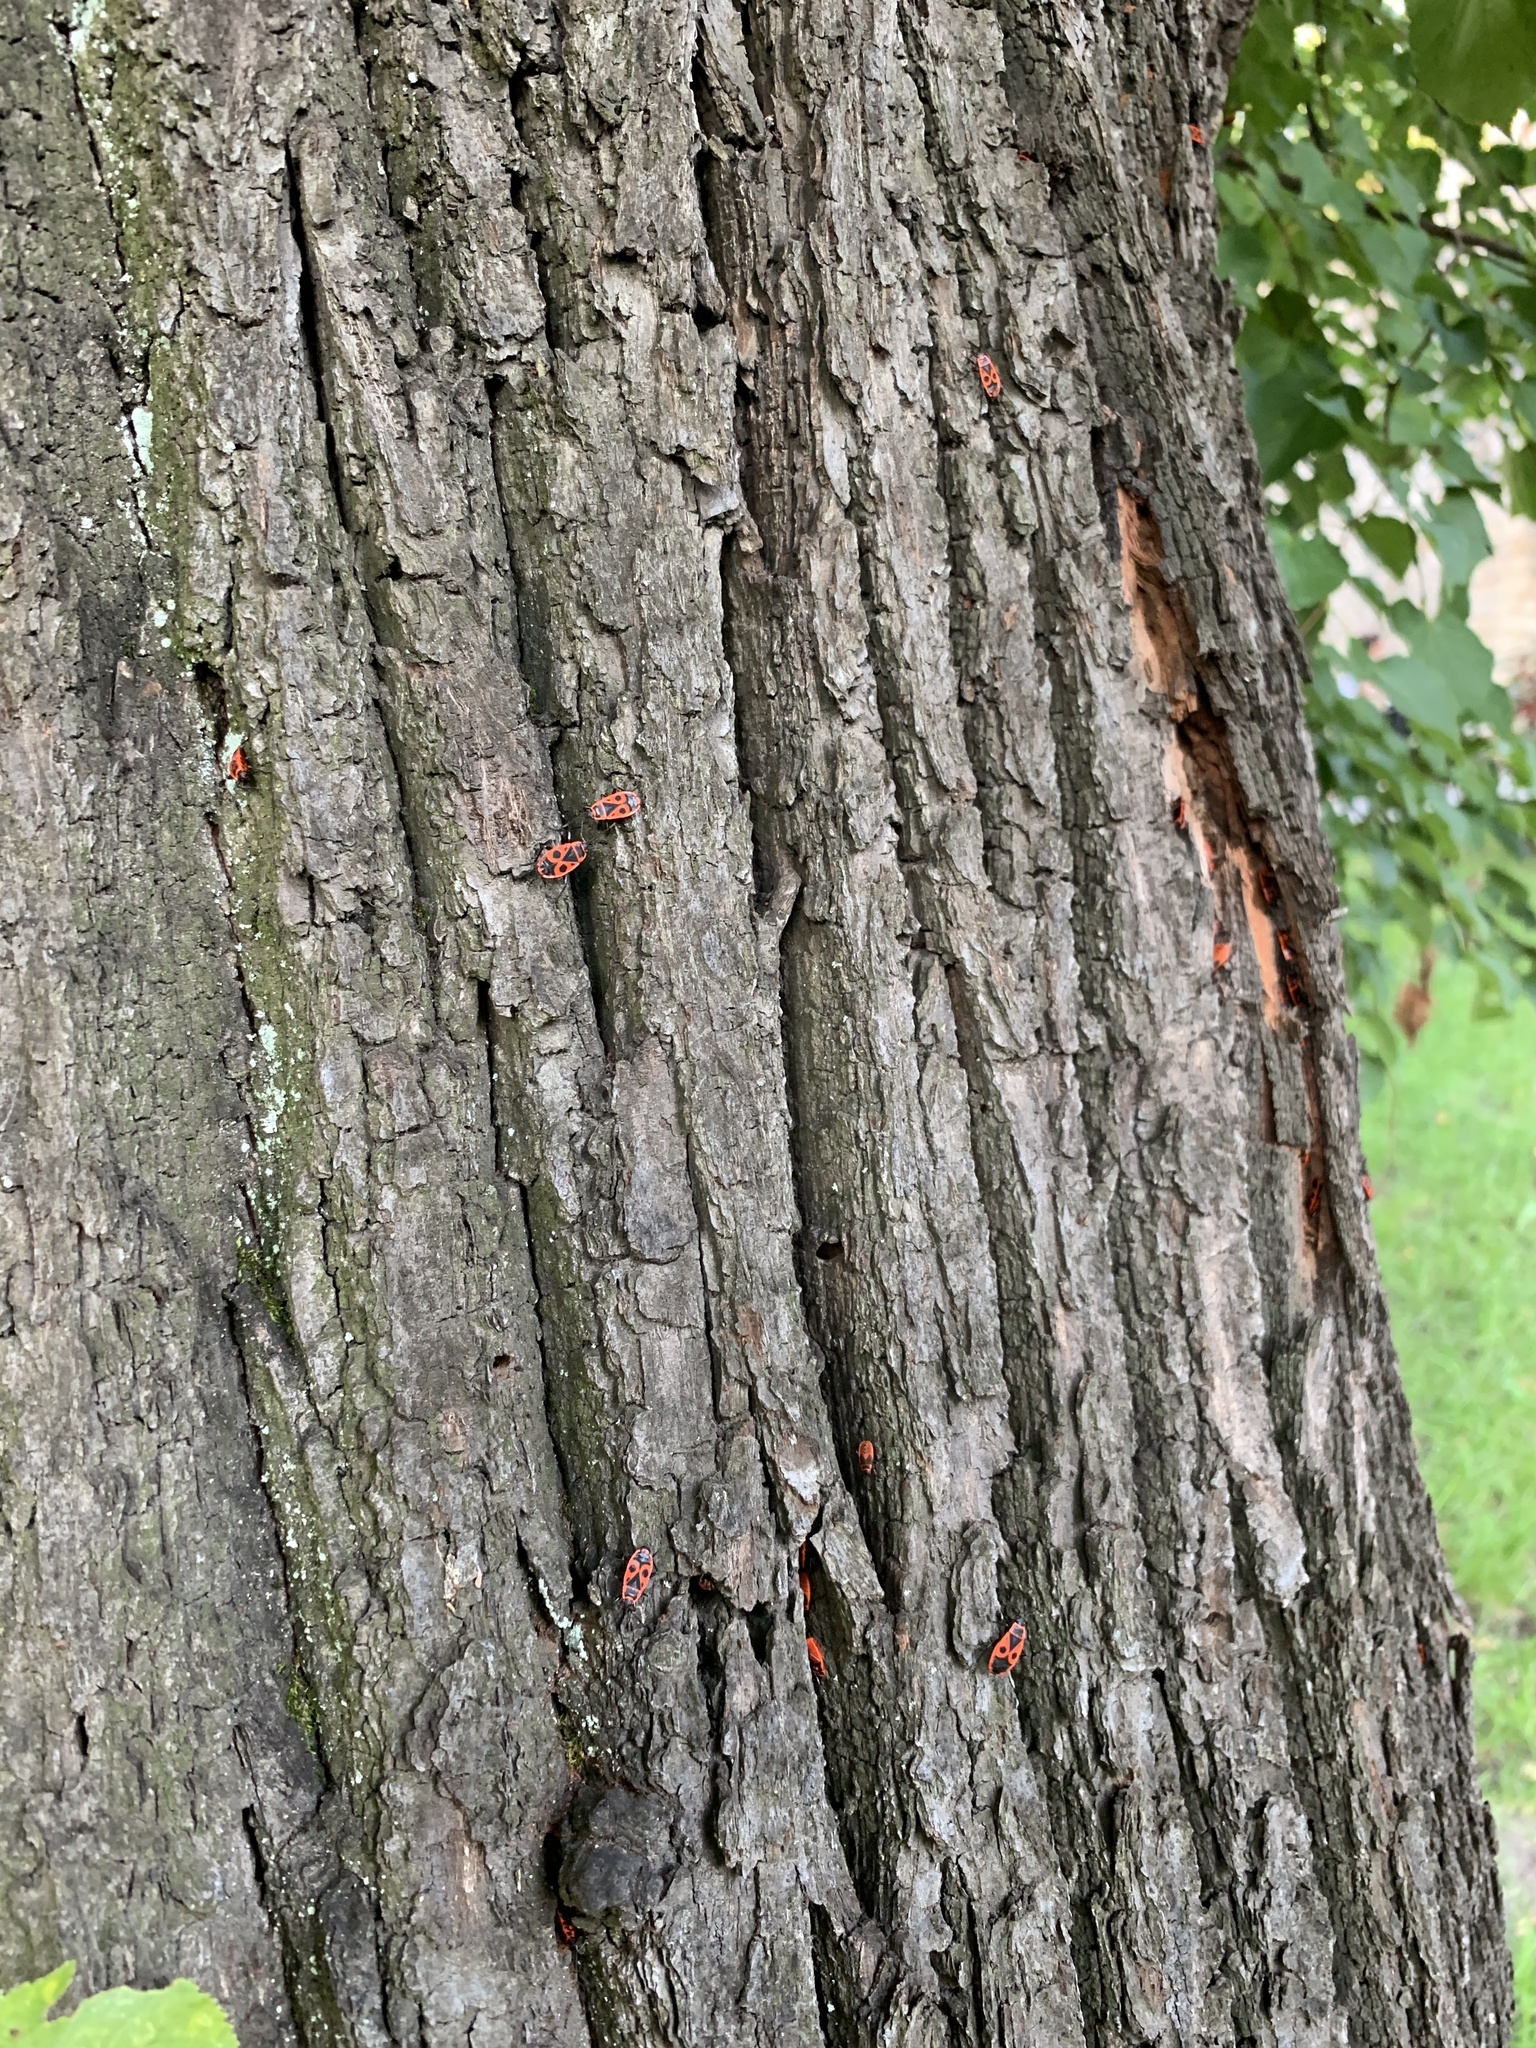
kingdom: Animalia
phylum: Arthropoda
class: Insecta
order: Hemiptera
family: Pyrrhocoridae
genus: Pyrrhocoris
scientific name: Pyrrhocoris apterus
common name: Firebug
